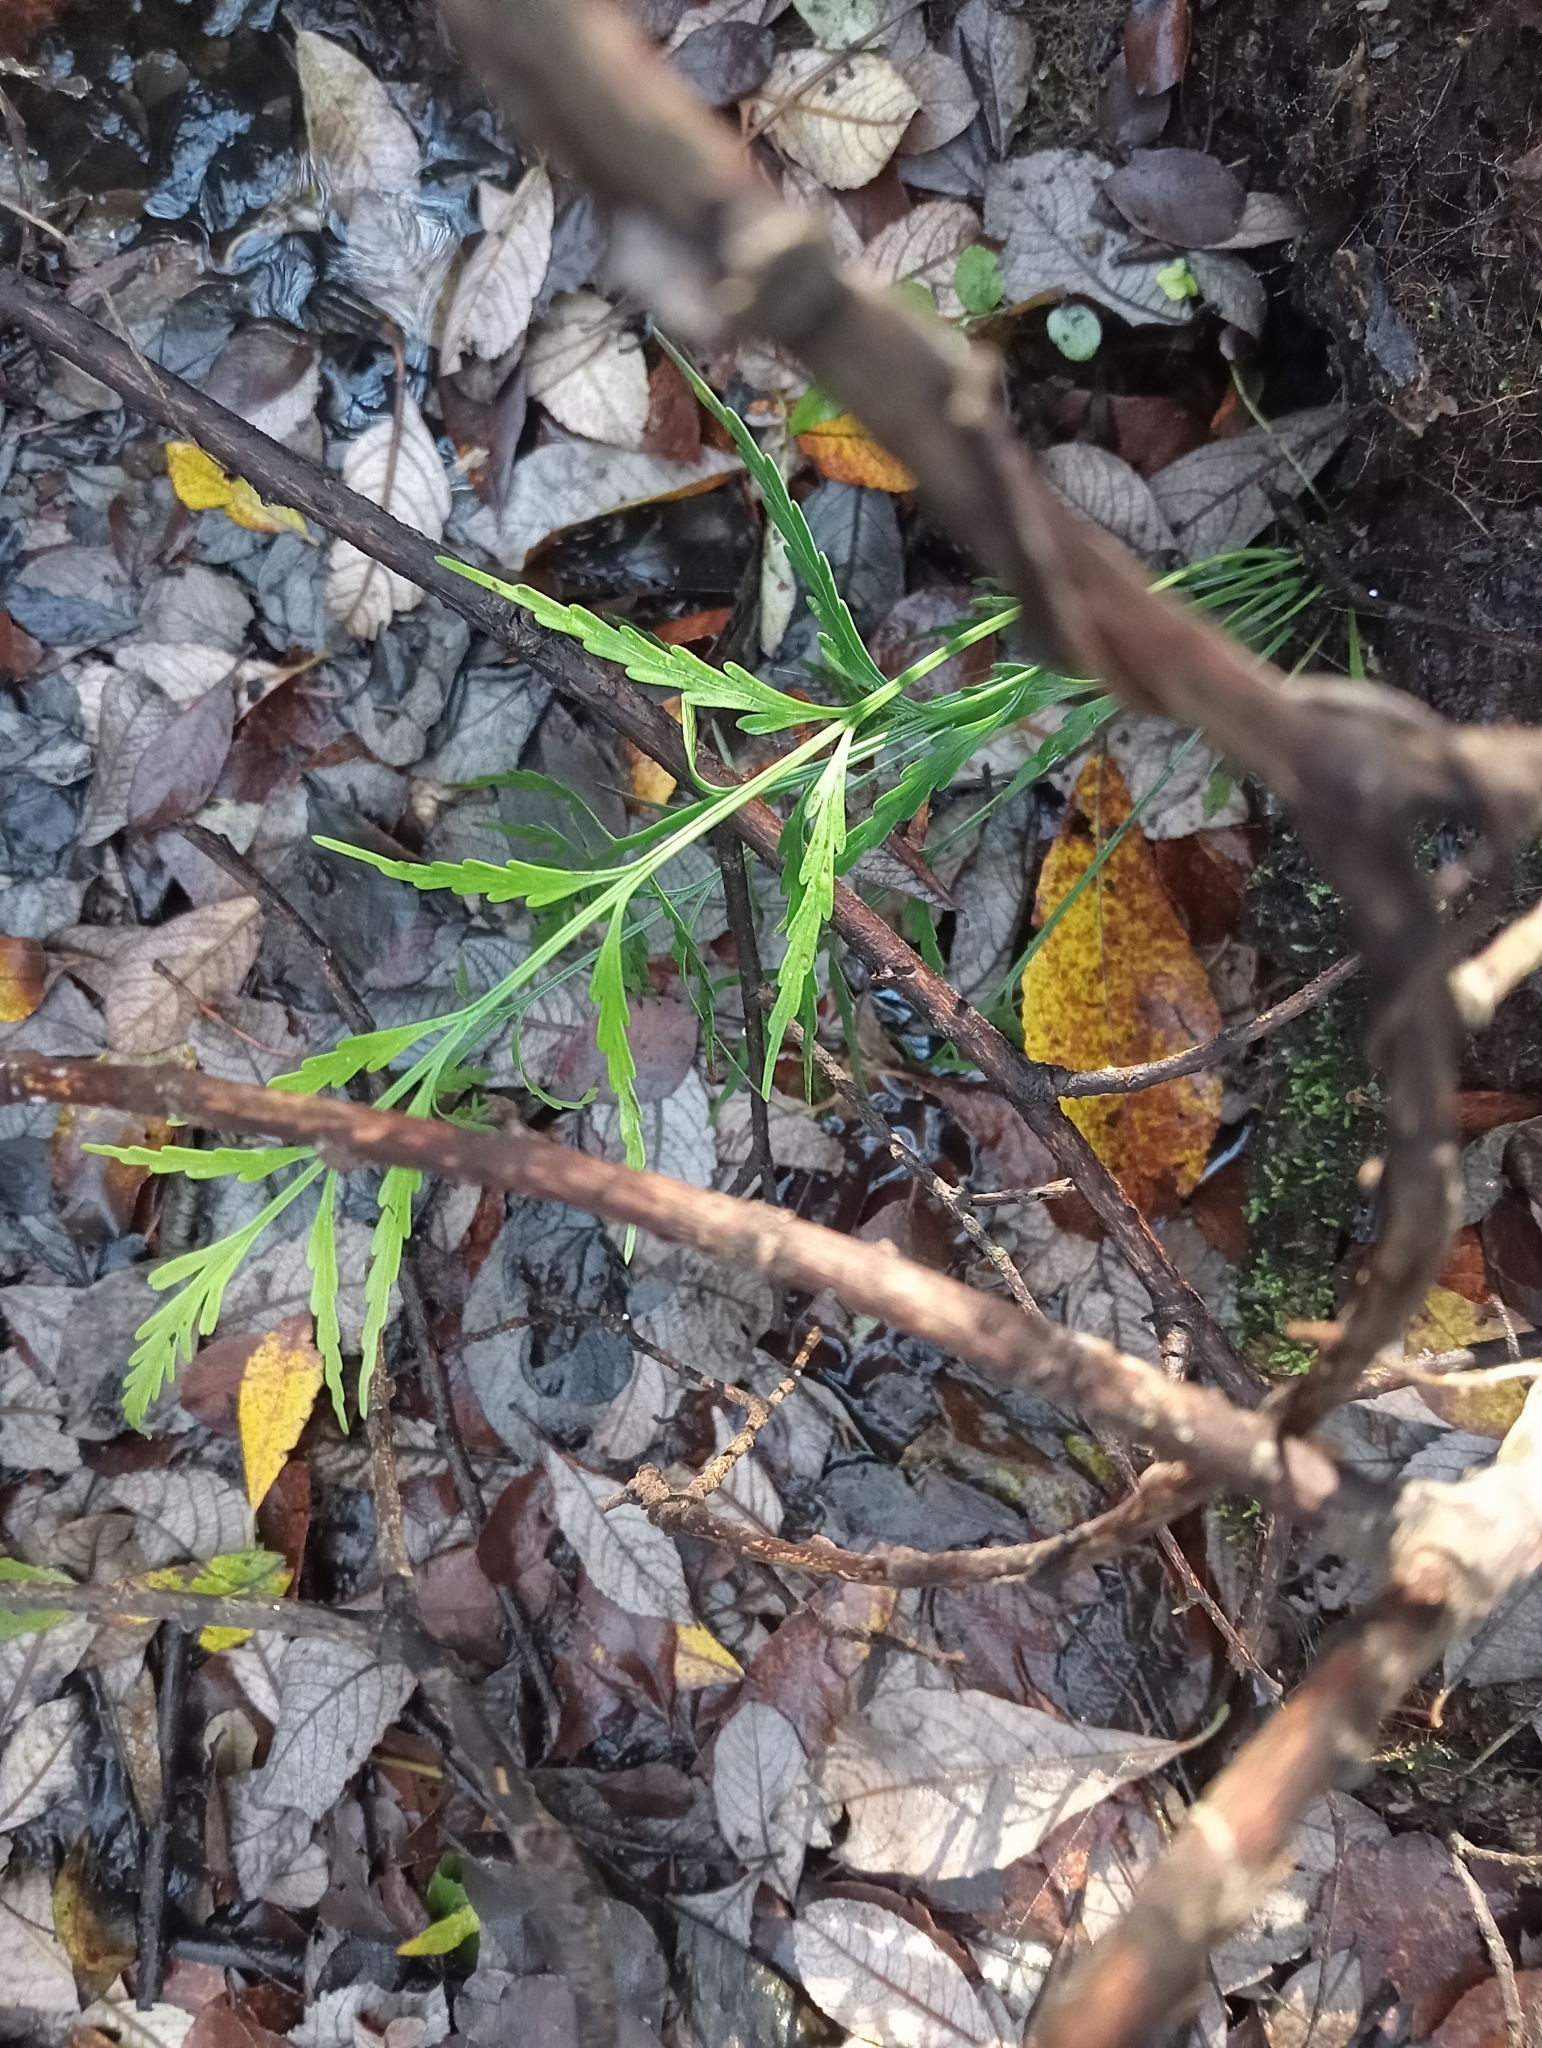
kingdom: Plantae
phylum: Tracheophyta
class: Polypodiopsida
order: Polypodiales
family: Aspleniaceae
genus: Asplenium
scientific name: Asplenium flaccidum
